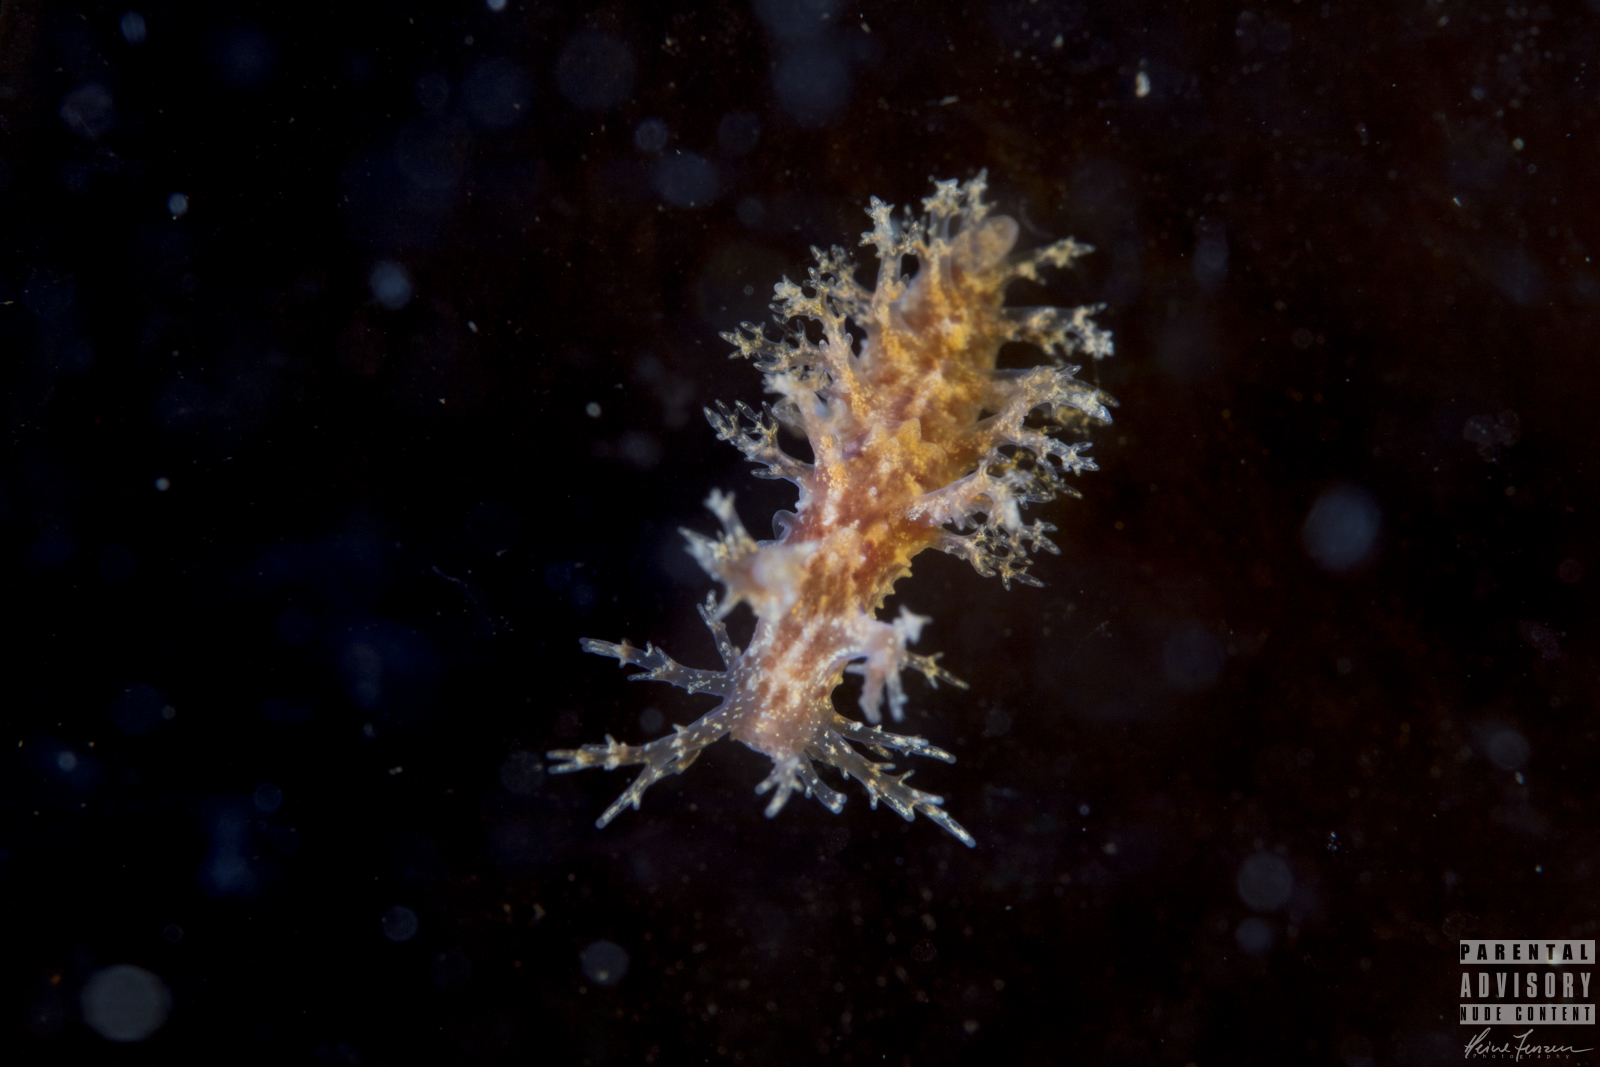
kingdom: Animalia
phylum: Mollusca
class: Gastropoda
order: Nudibranchia
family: Dendronotidae
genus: Dendronotus
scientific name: Dendronotus frondosus
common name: Bushy-backed nudibranch
